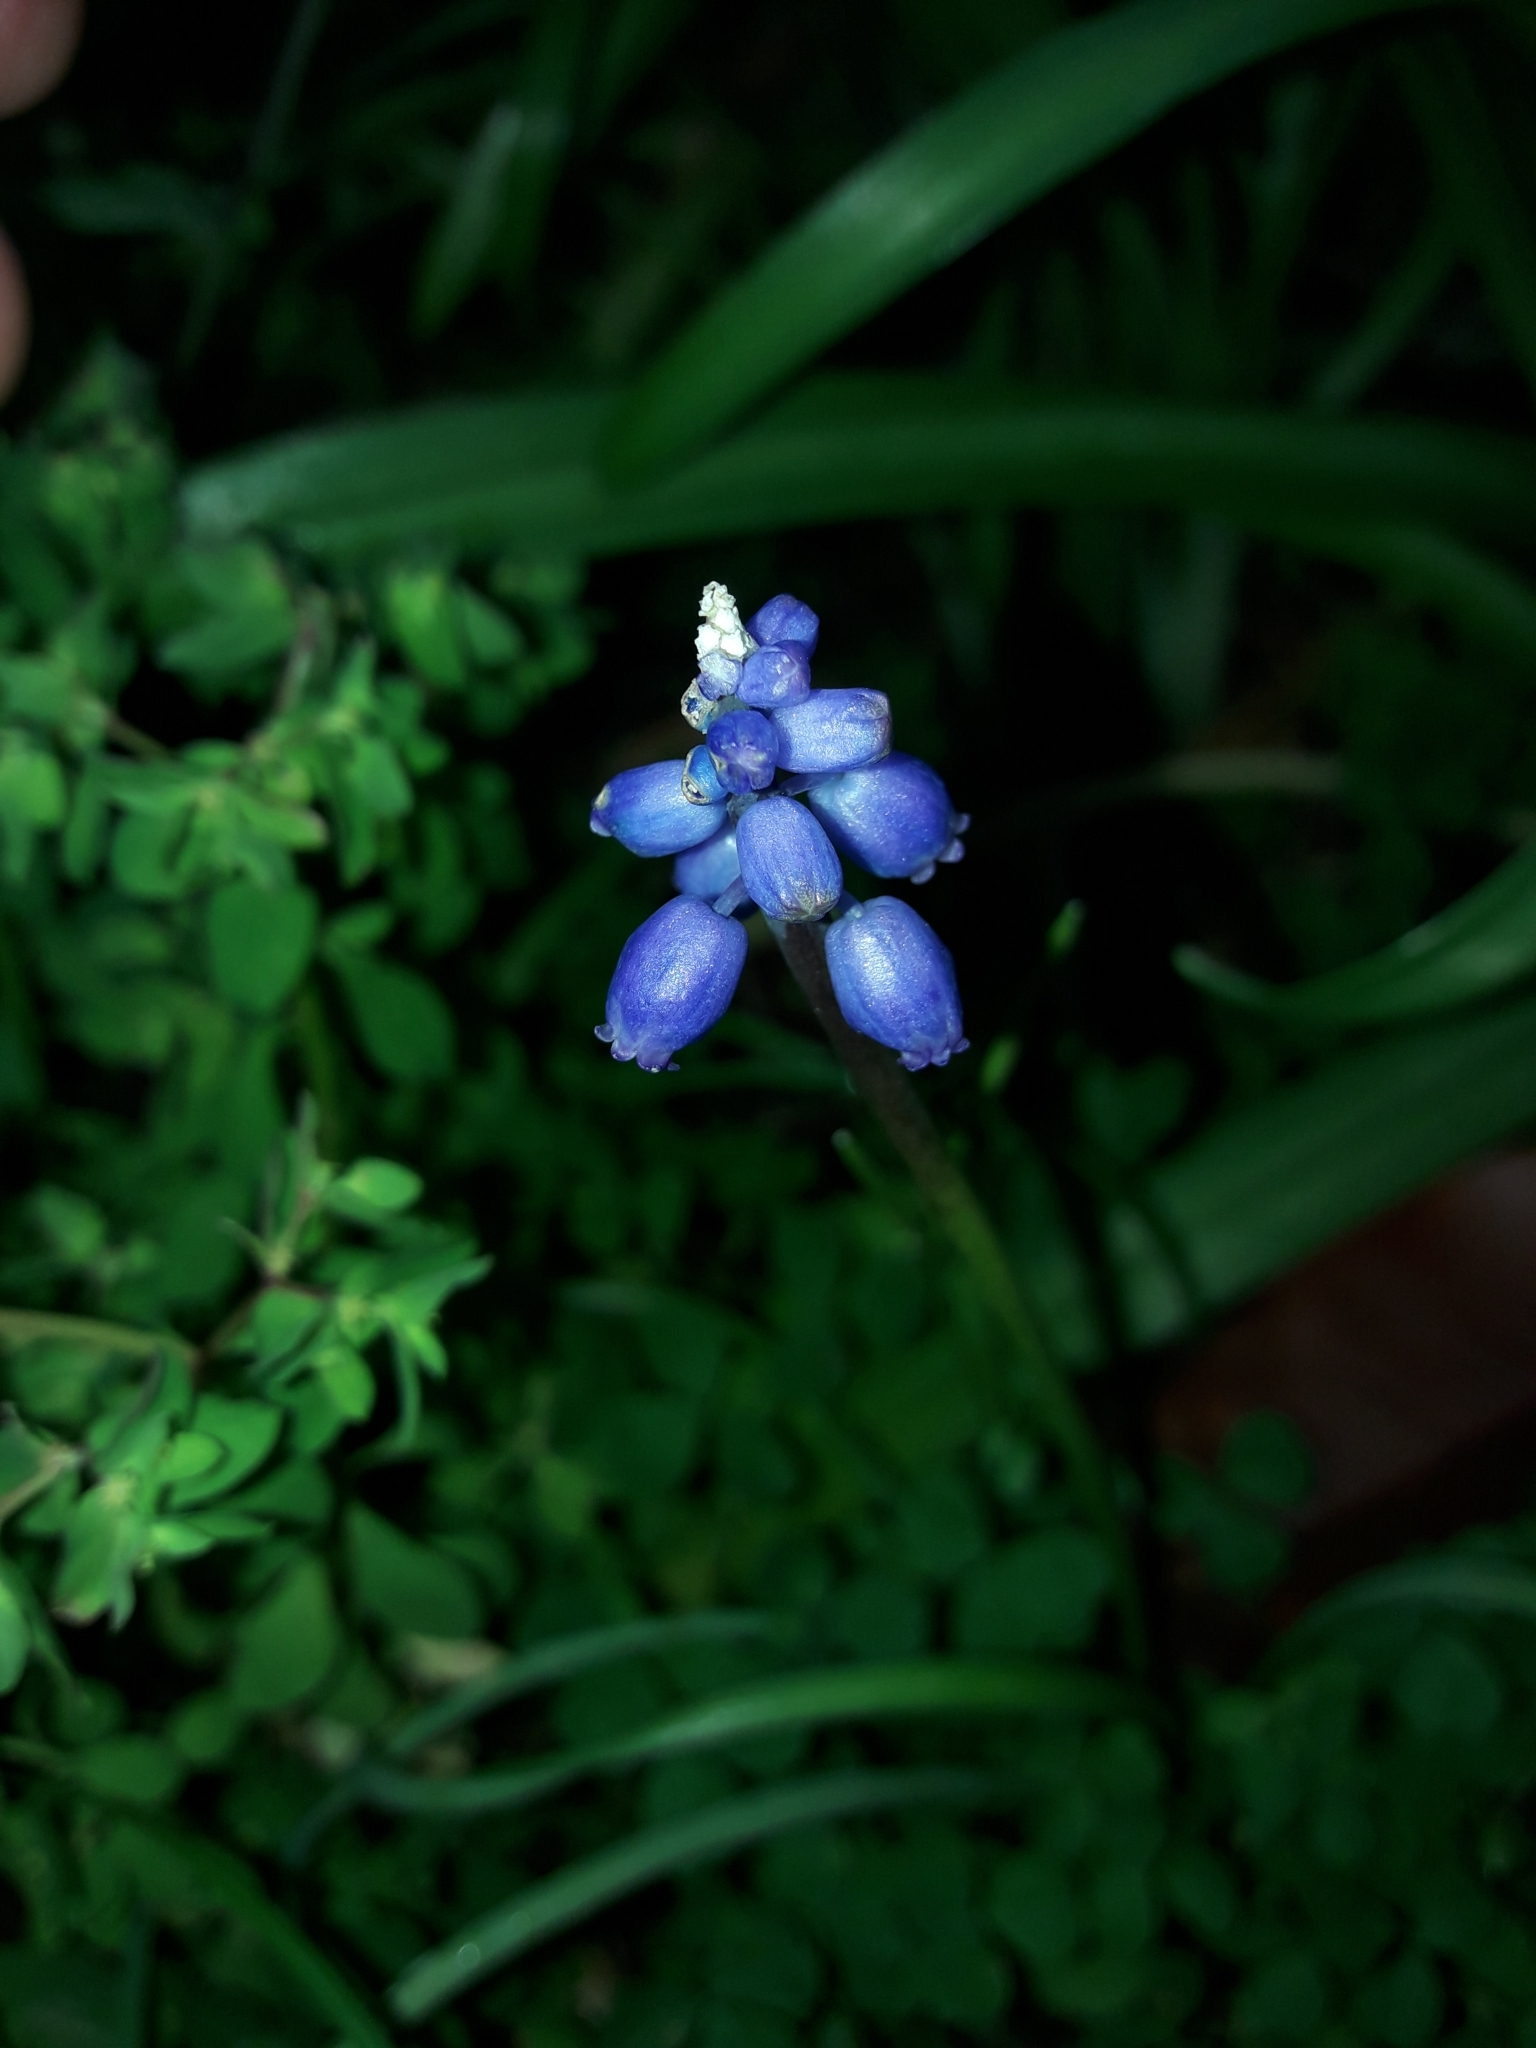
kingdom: Plantae
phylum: Tracheophyta
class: Liliopsida
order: Asparagales
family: Asparagaceae
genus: Muscari
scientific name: Muscari armeniacum
